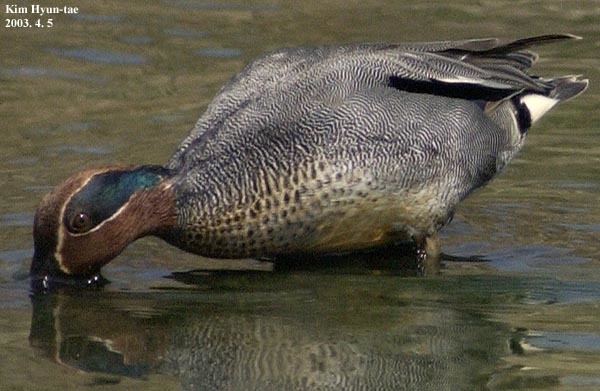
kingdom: Animalia
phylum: Chordata
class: Aves
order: Anseriformes
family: Anatidae
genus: Anas
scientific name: Anas crecca
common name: Eurasian teal
